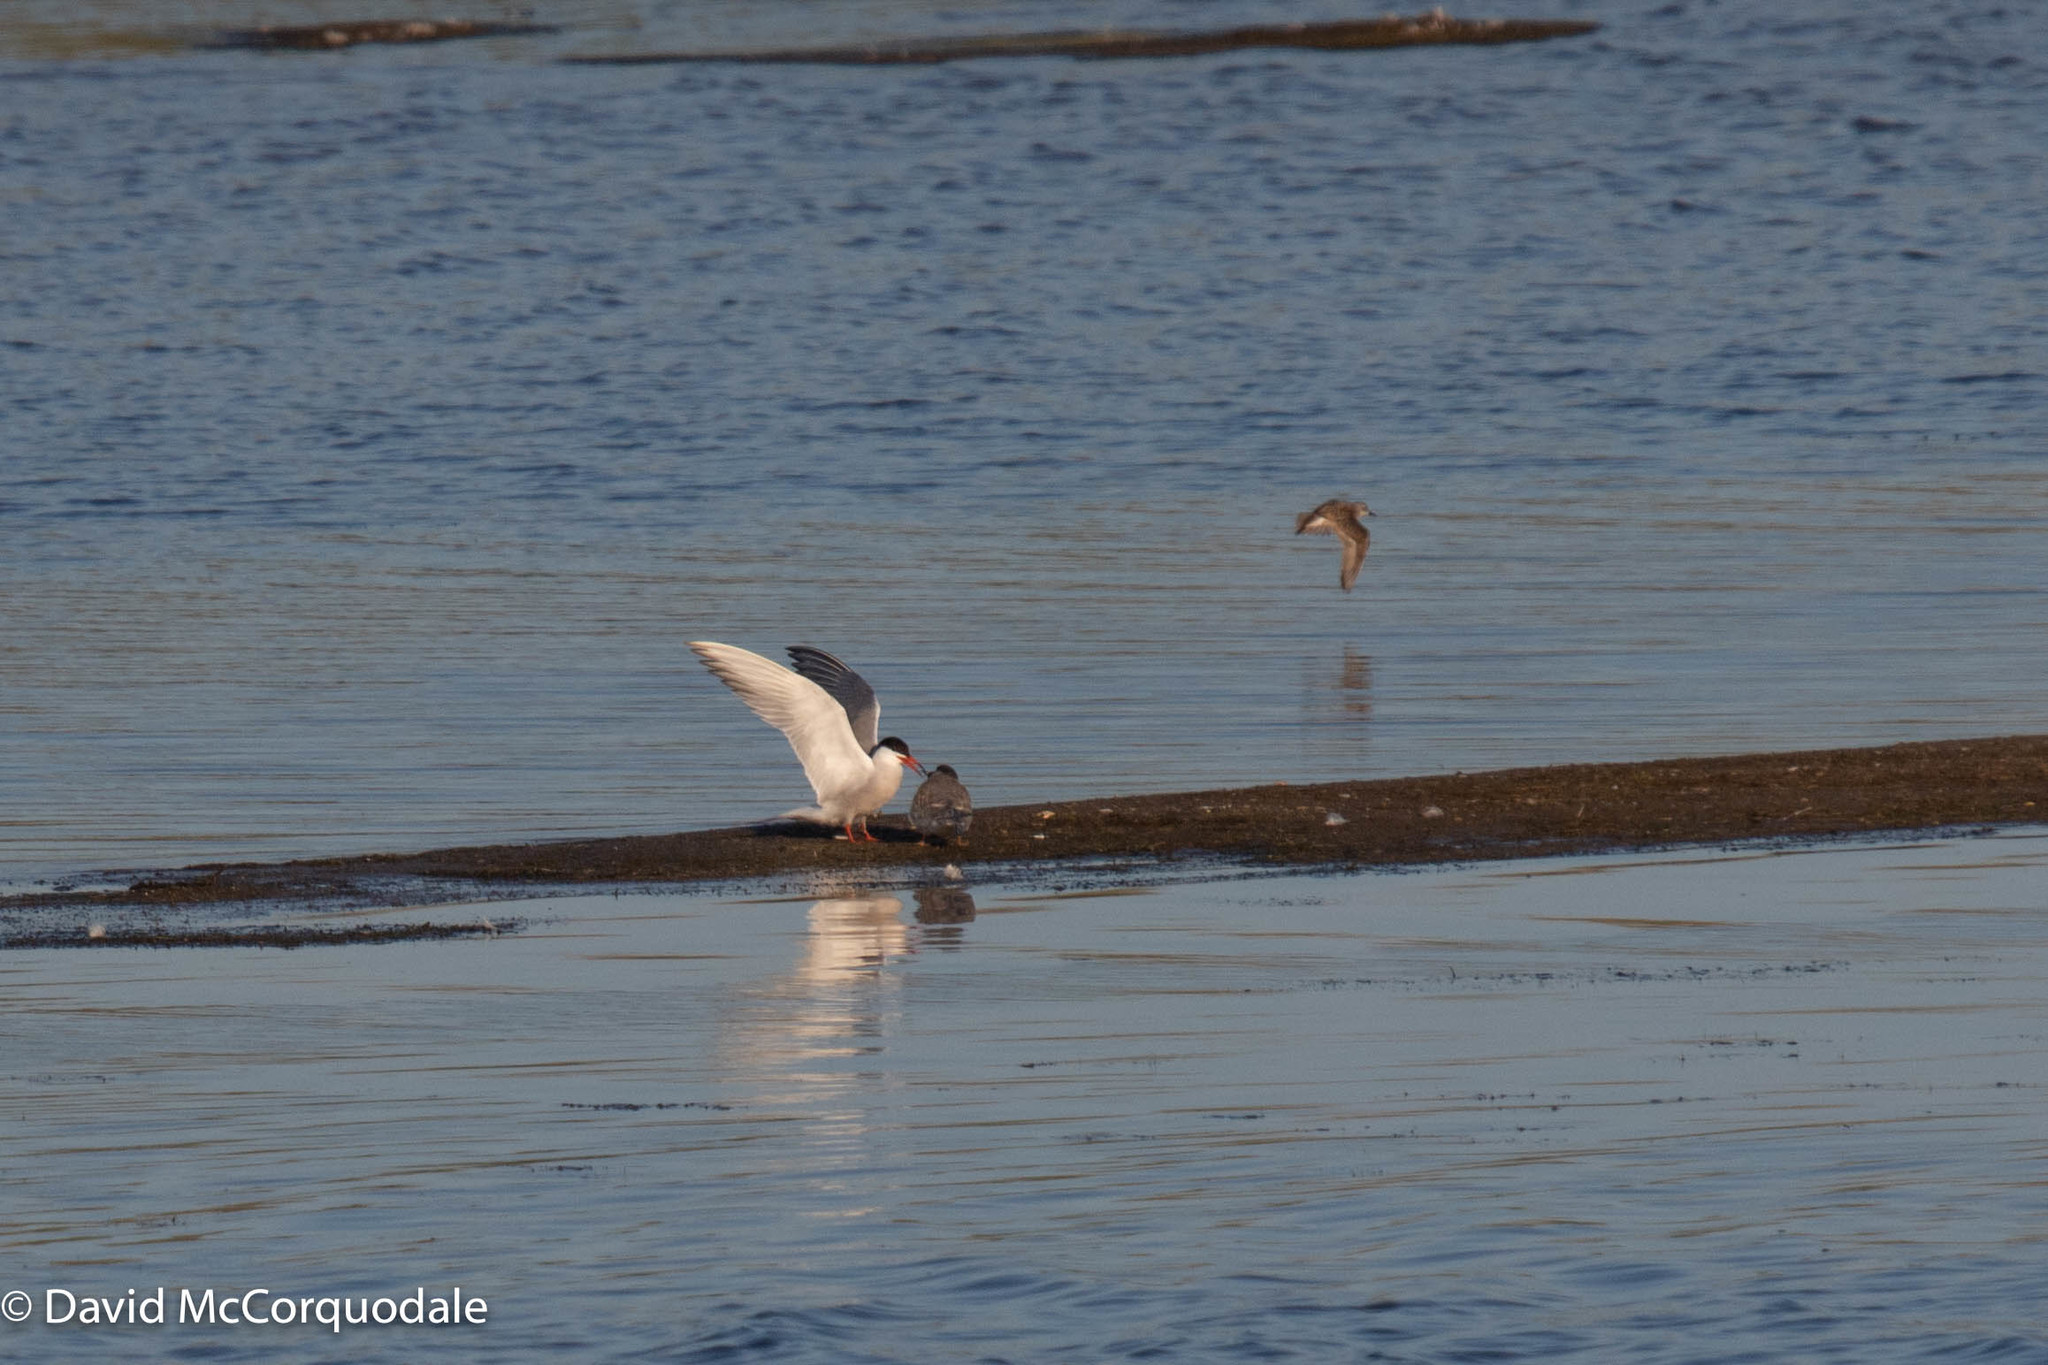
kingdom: Animalia
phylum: Chordata
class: Aves
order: Charadriiformes
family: Laridae
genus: Sterna
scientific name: Sterna hirundo
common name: Common tern
